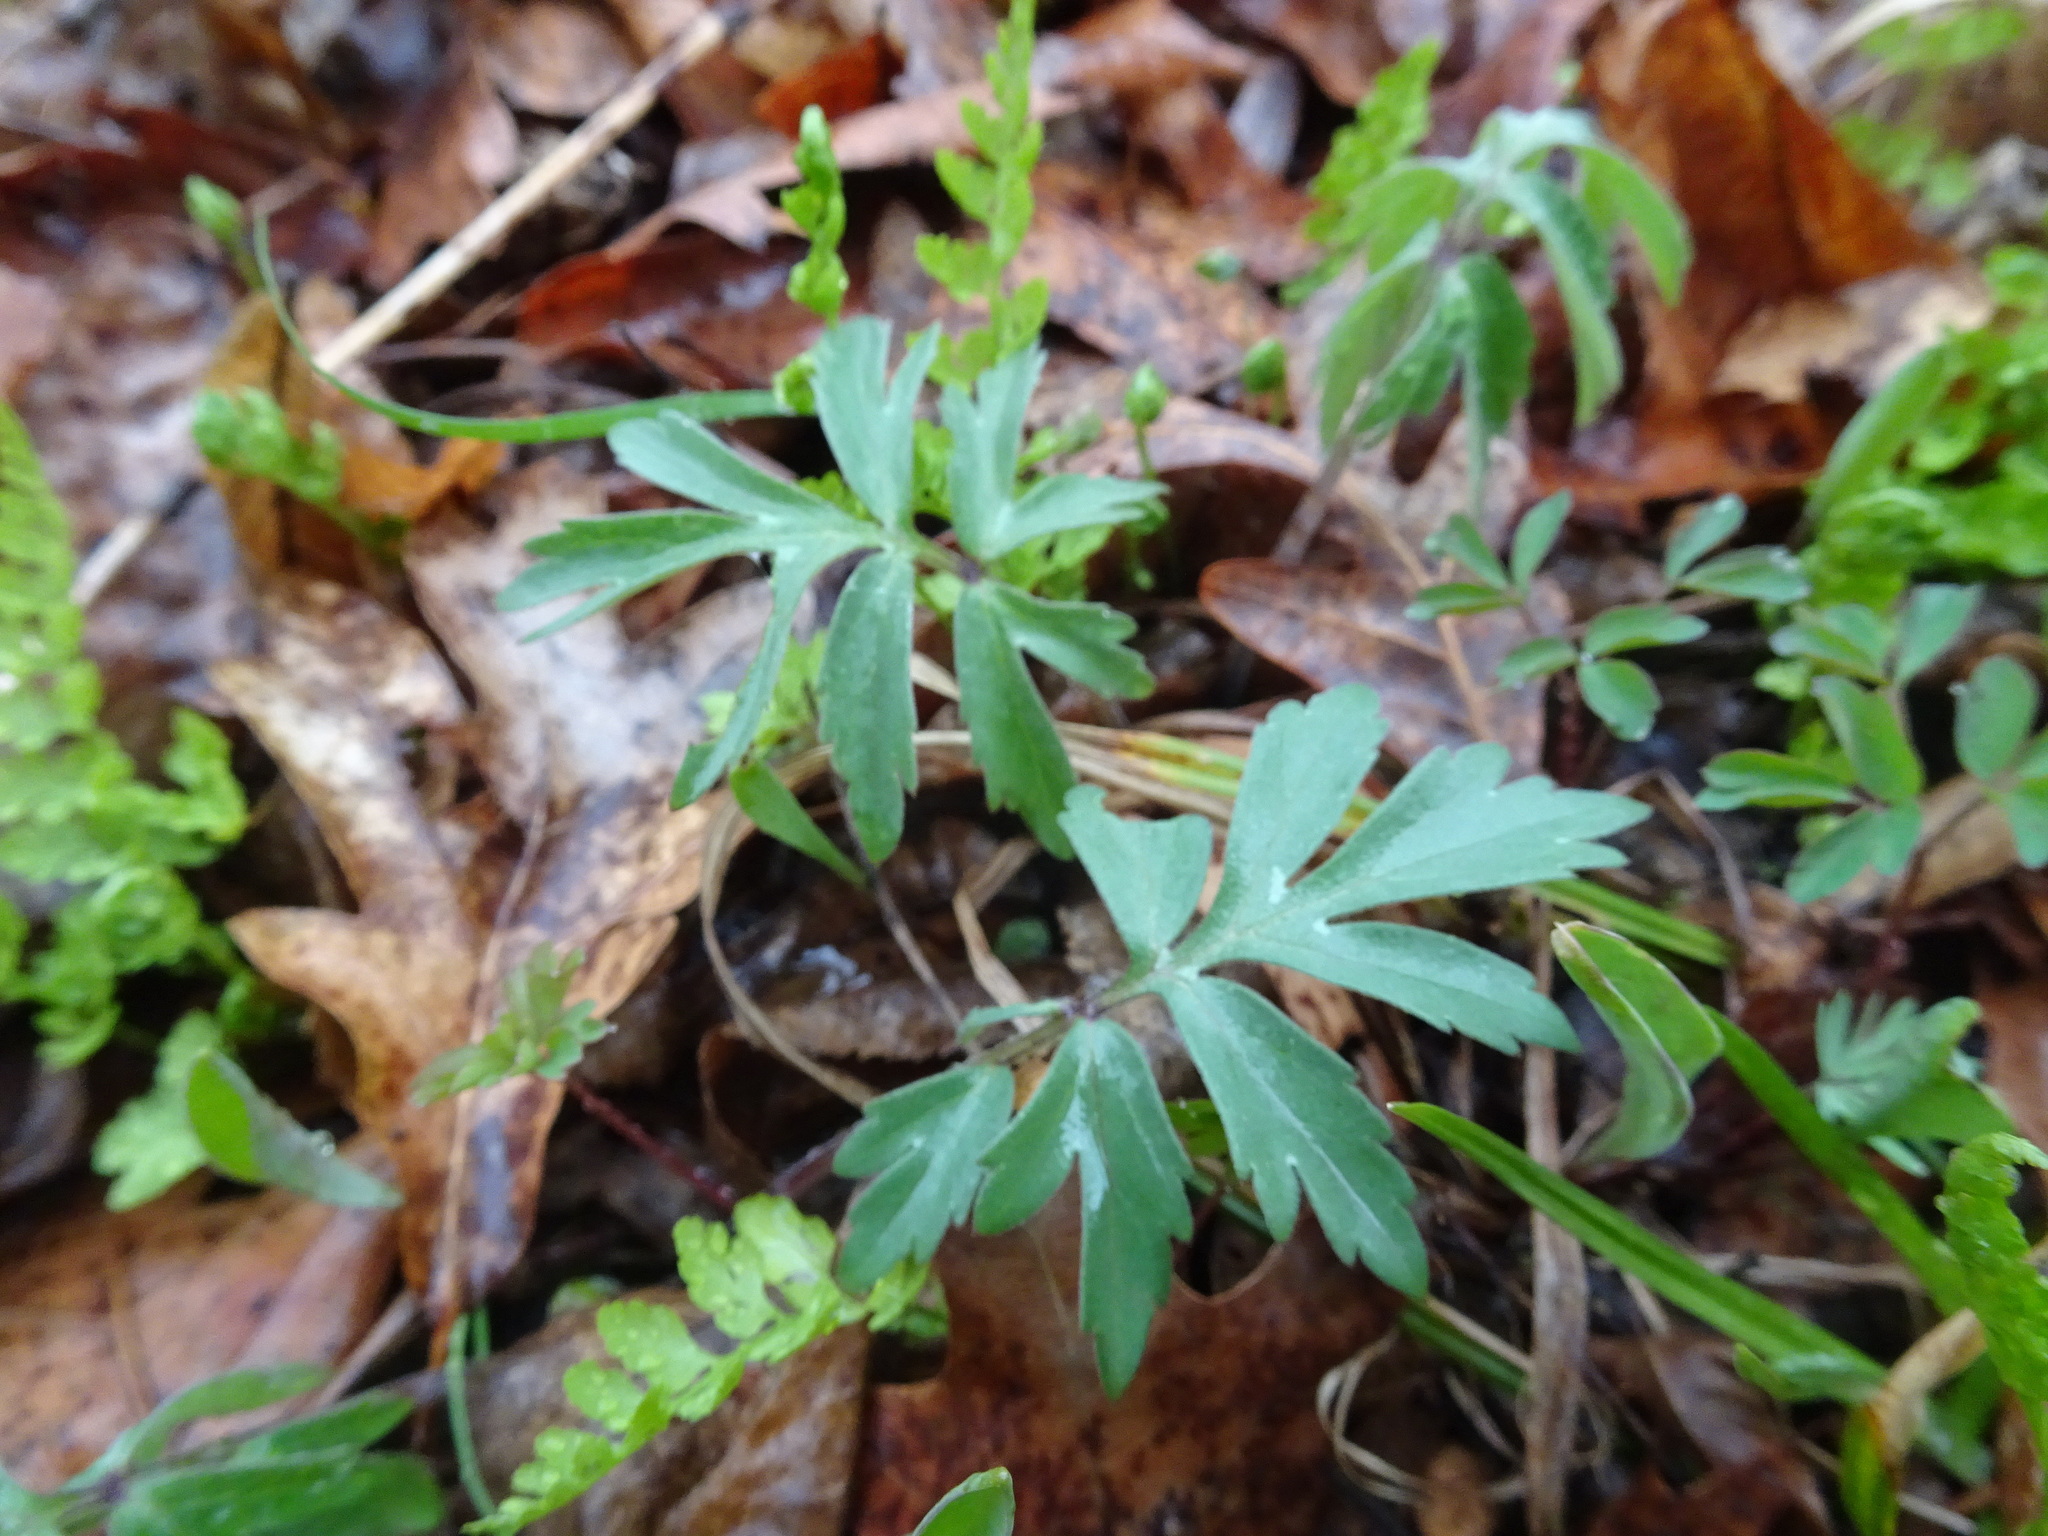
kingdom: Plantae
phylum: Tracheophyta
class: Magnoliopsida
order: Boraginales
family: Hydrophyllaceae
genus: Hydrophyllum
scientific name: Hydrophyllum virginianum
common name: Virginia waterleaf
